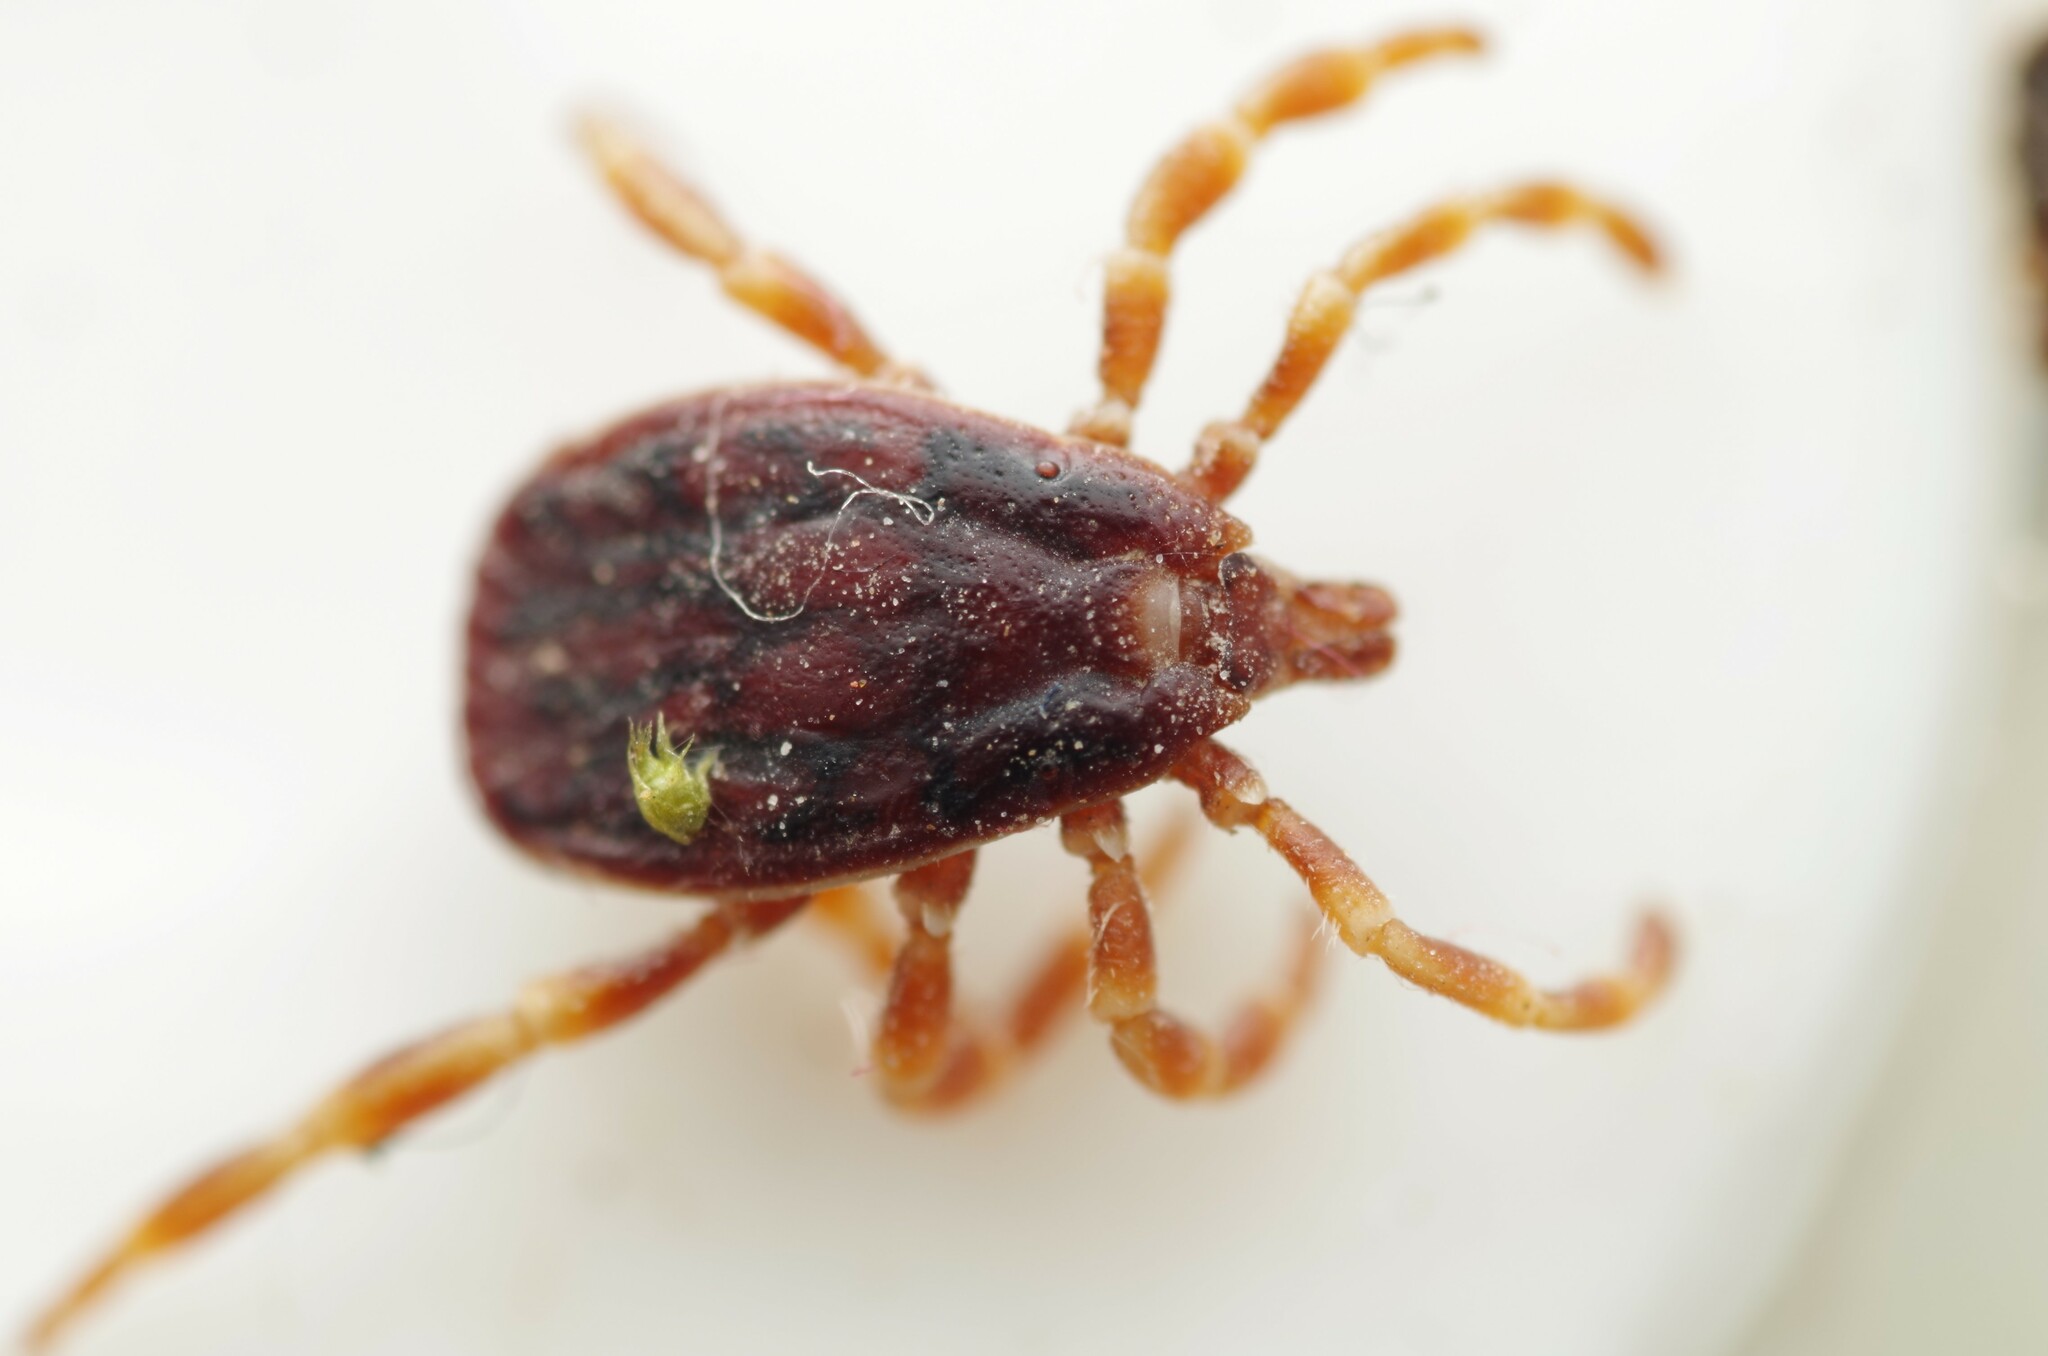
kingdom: Animalia
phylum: Arthropoda
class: Arachnida
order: Ixodida
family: Ixodidae
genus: Hyalomma
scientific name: Hyalomma marginatum
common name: Mediterranean hyalomma
